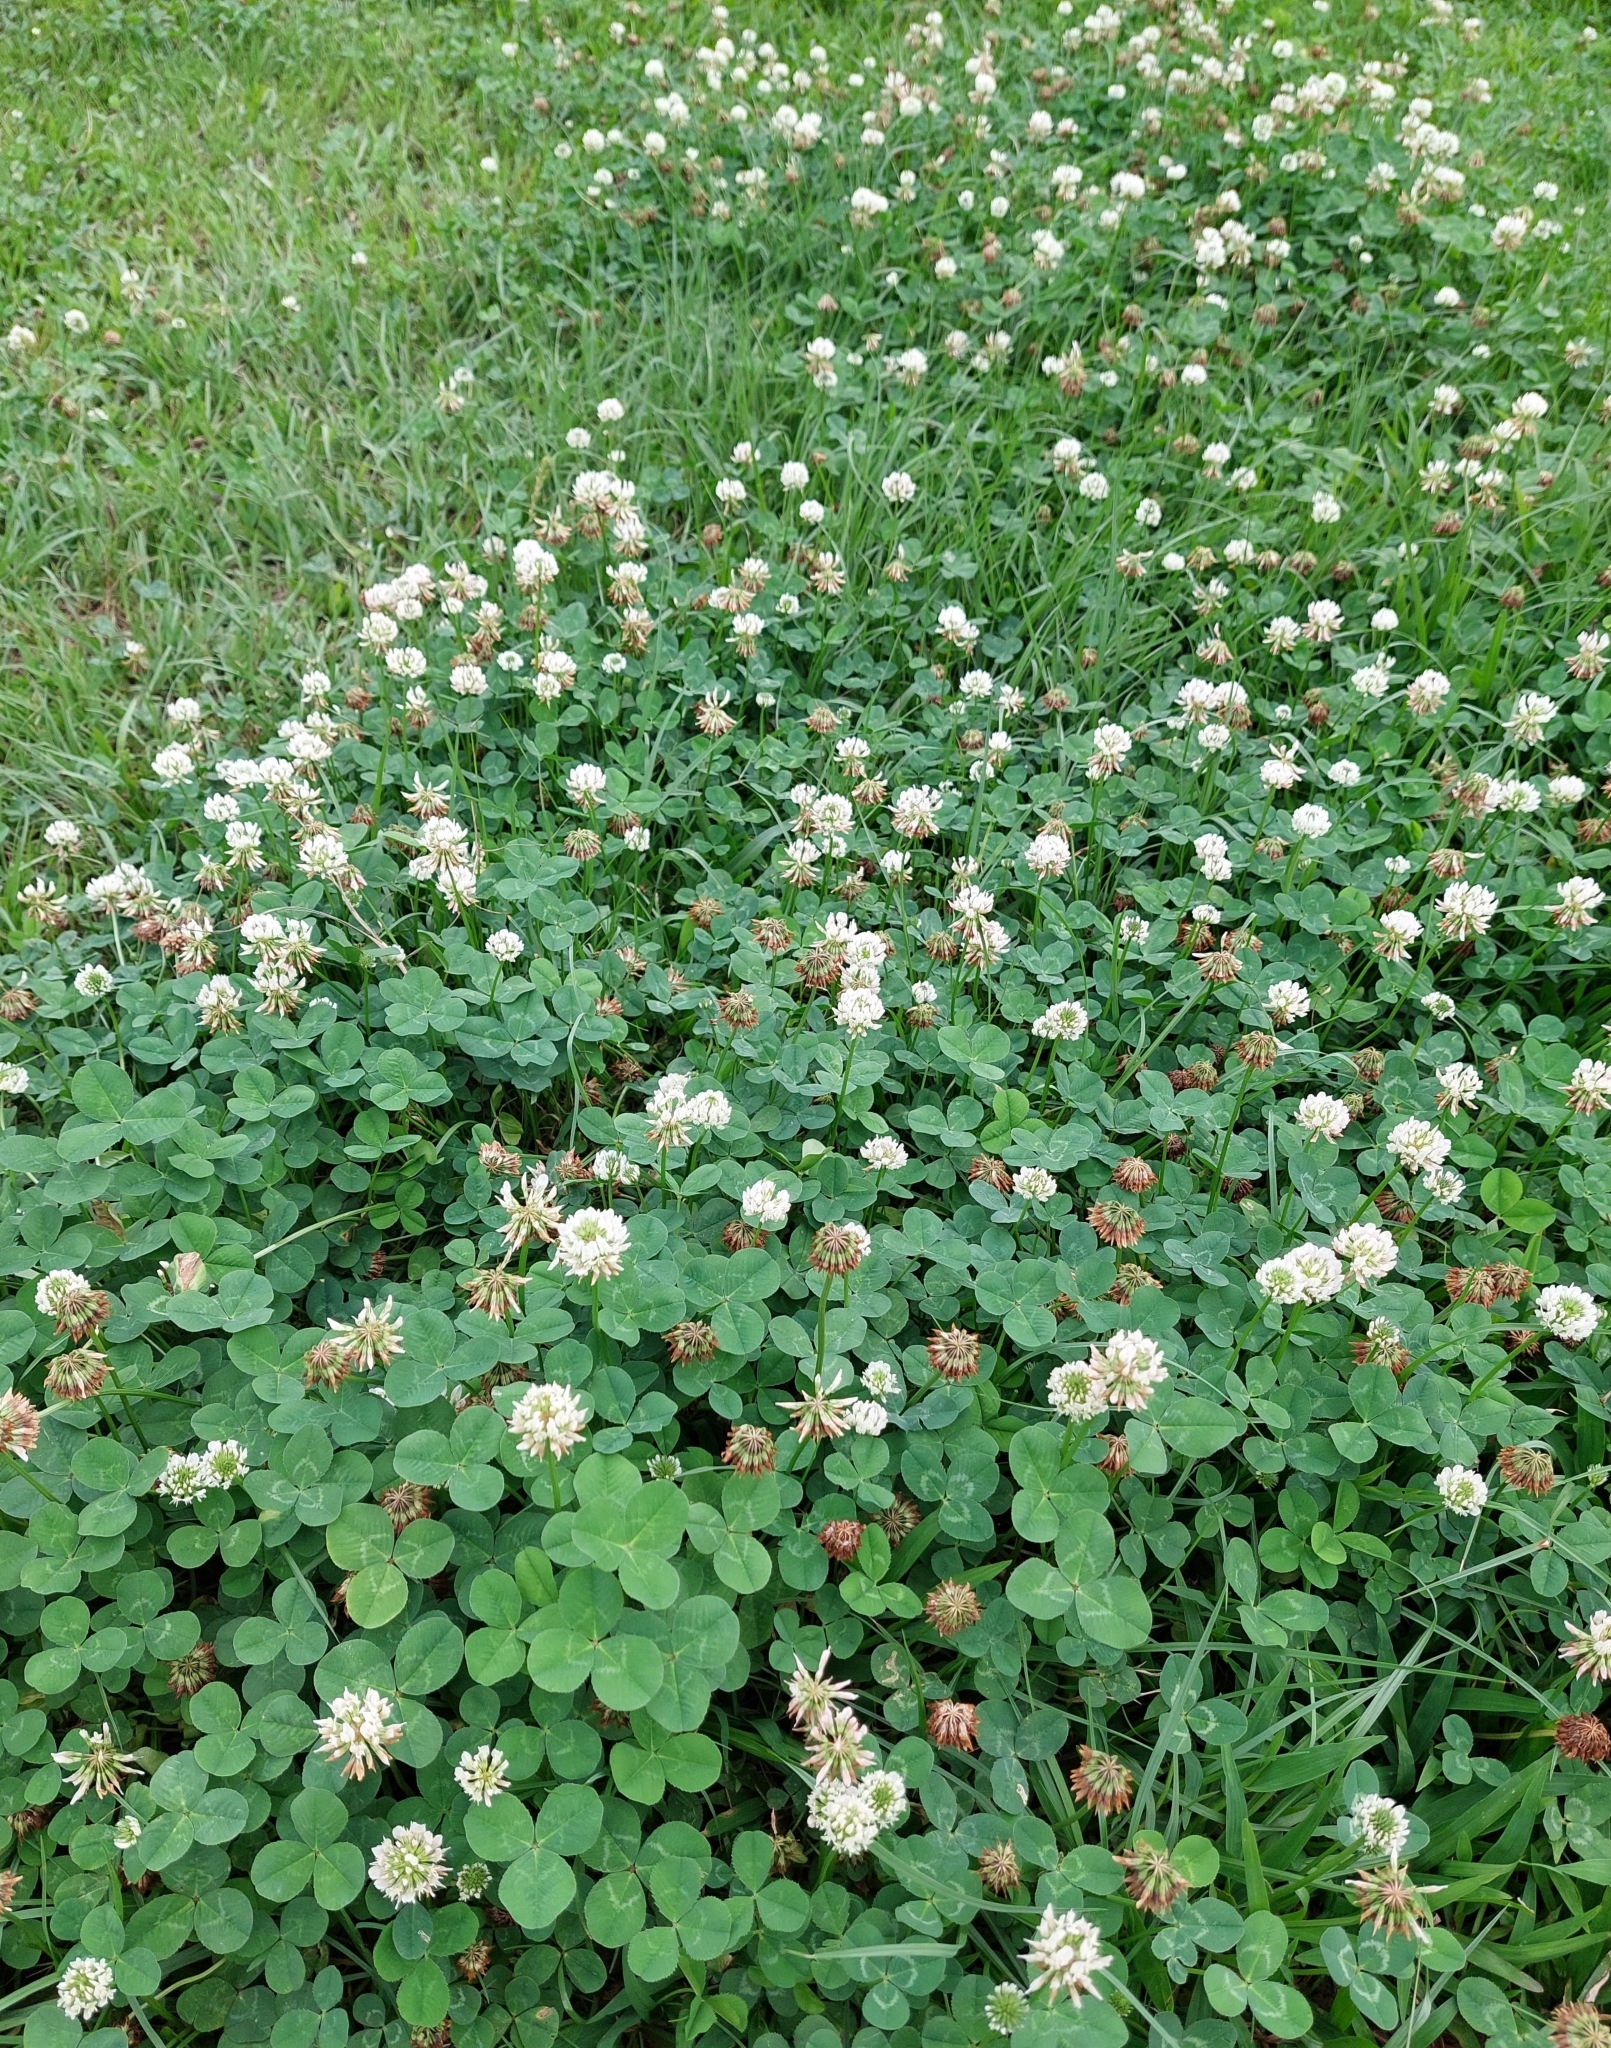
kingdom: Plantae
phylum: Tracheophyta
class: Magnoliopsida
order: Fabales
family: Fabaceae
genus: Trifolium
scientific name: Trifolium repens
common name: White clover
